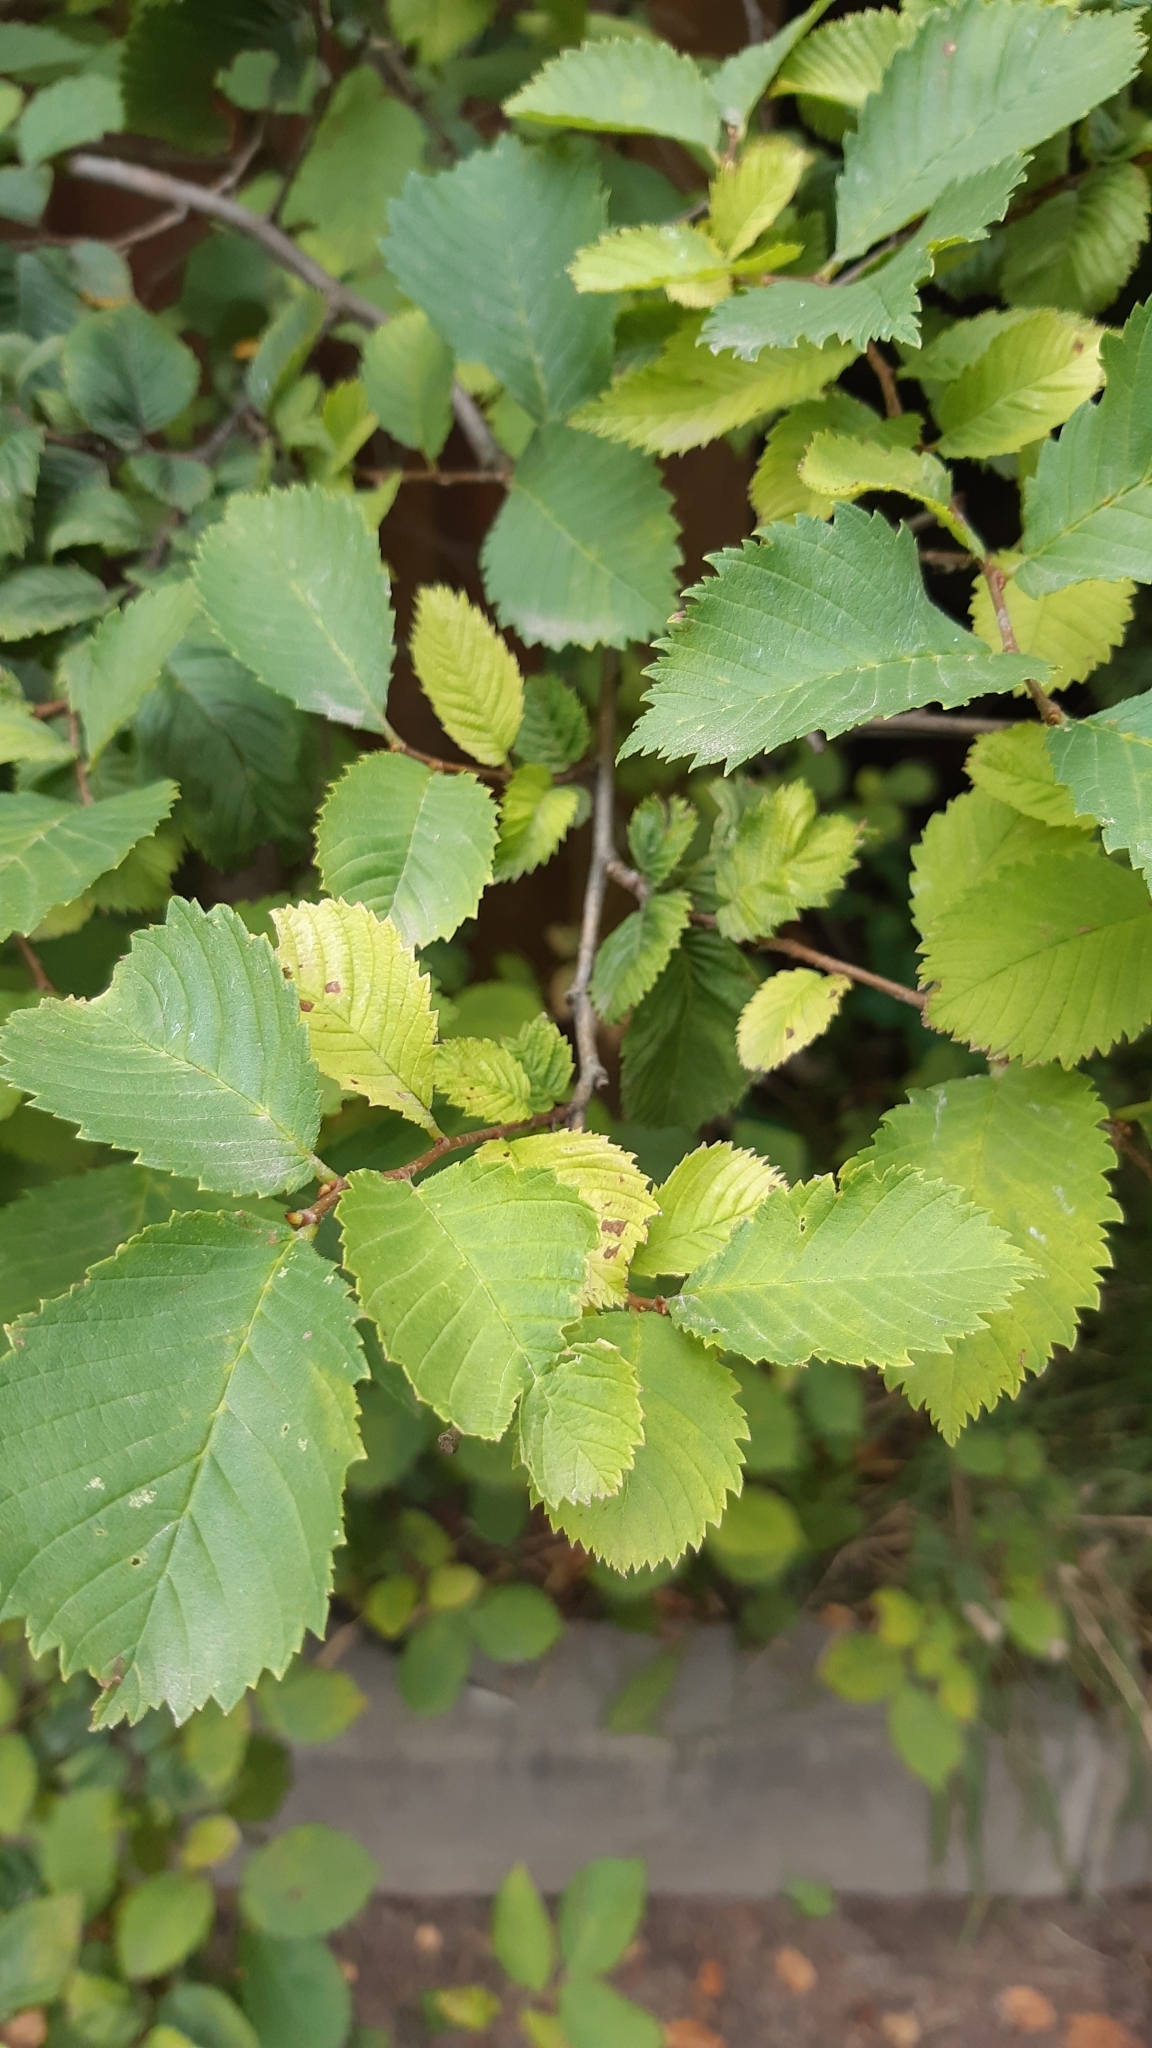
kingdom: Plantae
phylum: Tracheophyta
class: Magnoliopsida
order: Rosales
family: Ulmaceae
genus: Ulmus
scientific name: Ulmus laevis
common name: European white-elm
